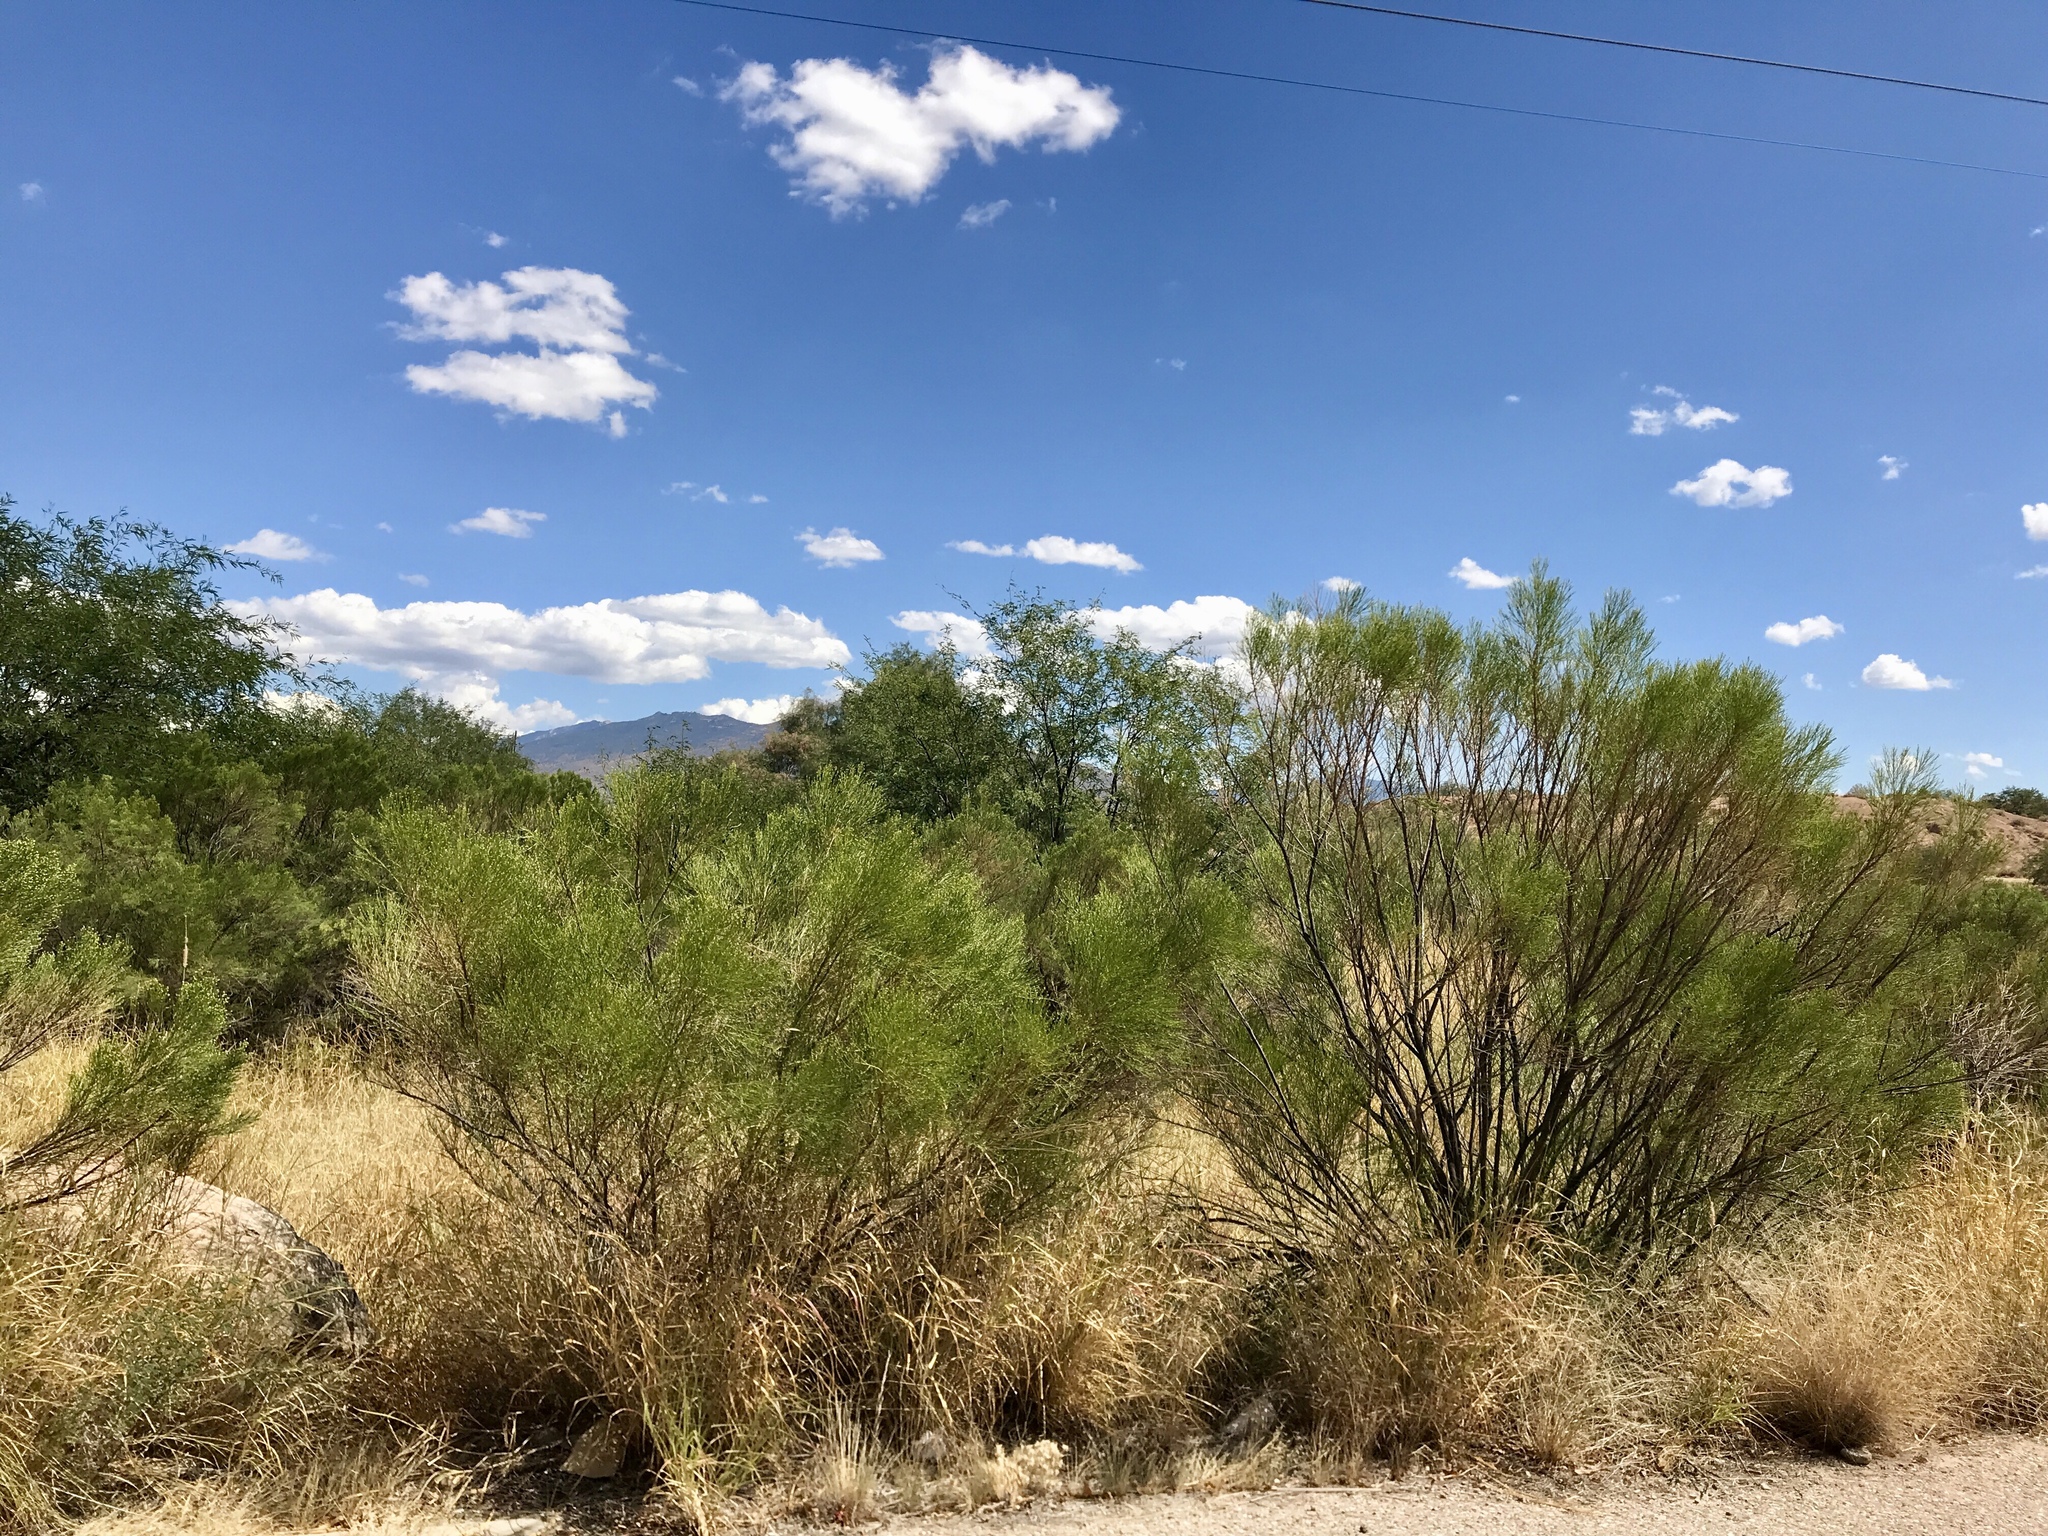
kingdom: Plantae
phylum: Tracheophyta
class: Magnoliopsida
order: Asterales
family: Asteraceae
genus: Baccharis
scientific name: Baccharis sarothroides
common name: Desert-broom
